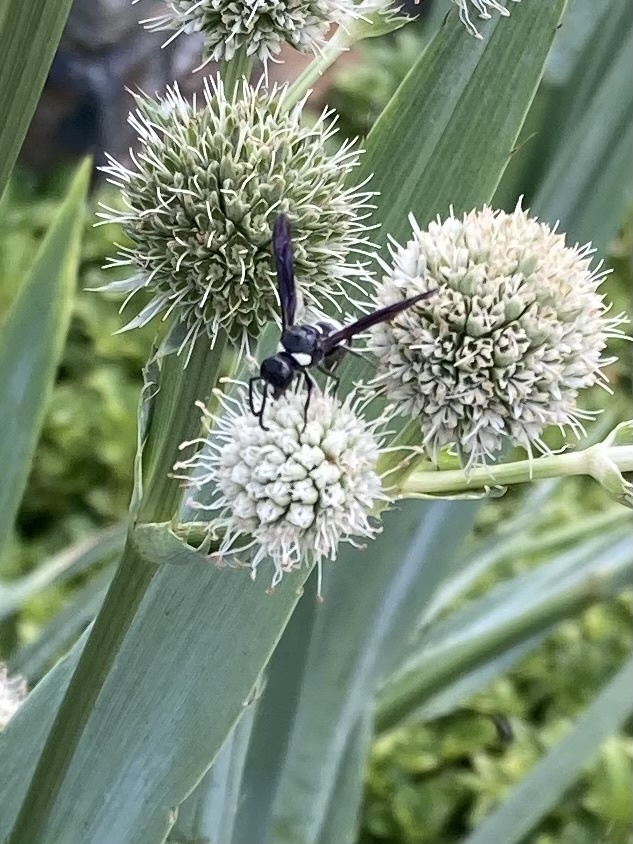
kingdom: Animalia
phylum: Arthropoda
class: Insecta
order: Hymenoptera
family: Crabronidae
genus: Philanthus
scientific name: Philanthus gibbosus
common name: Humped beewolf
